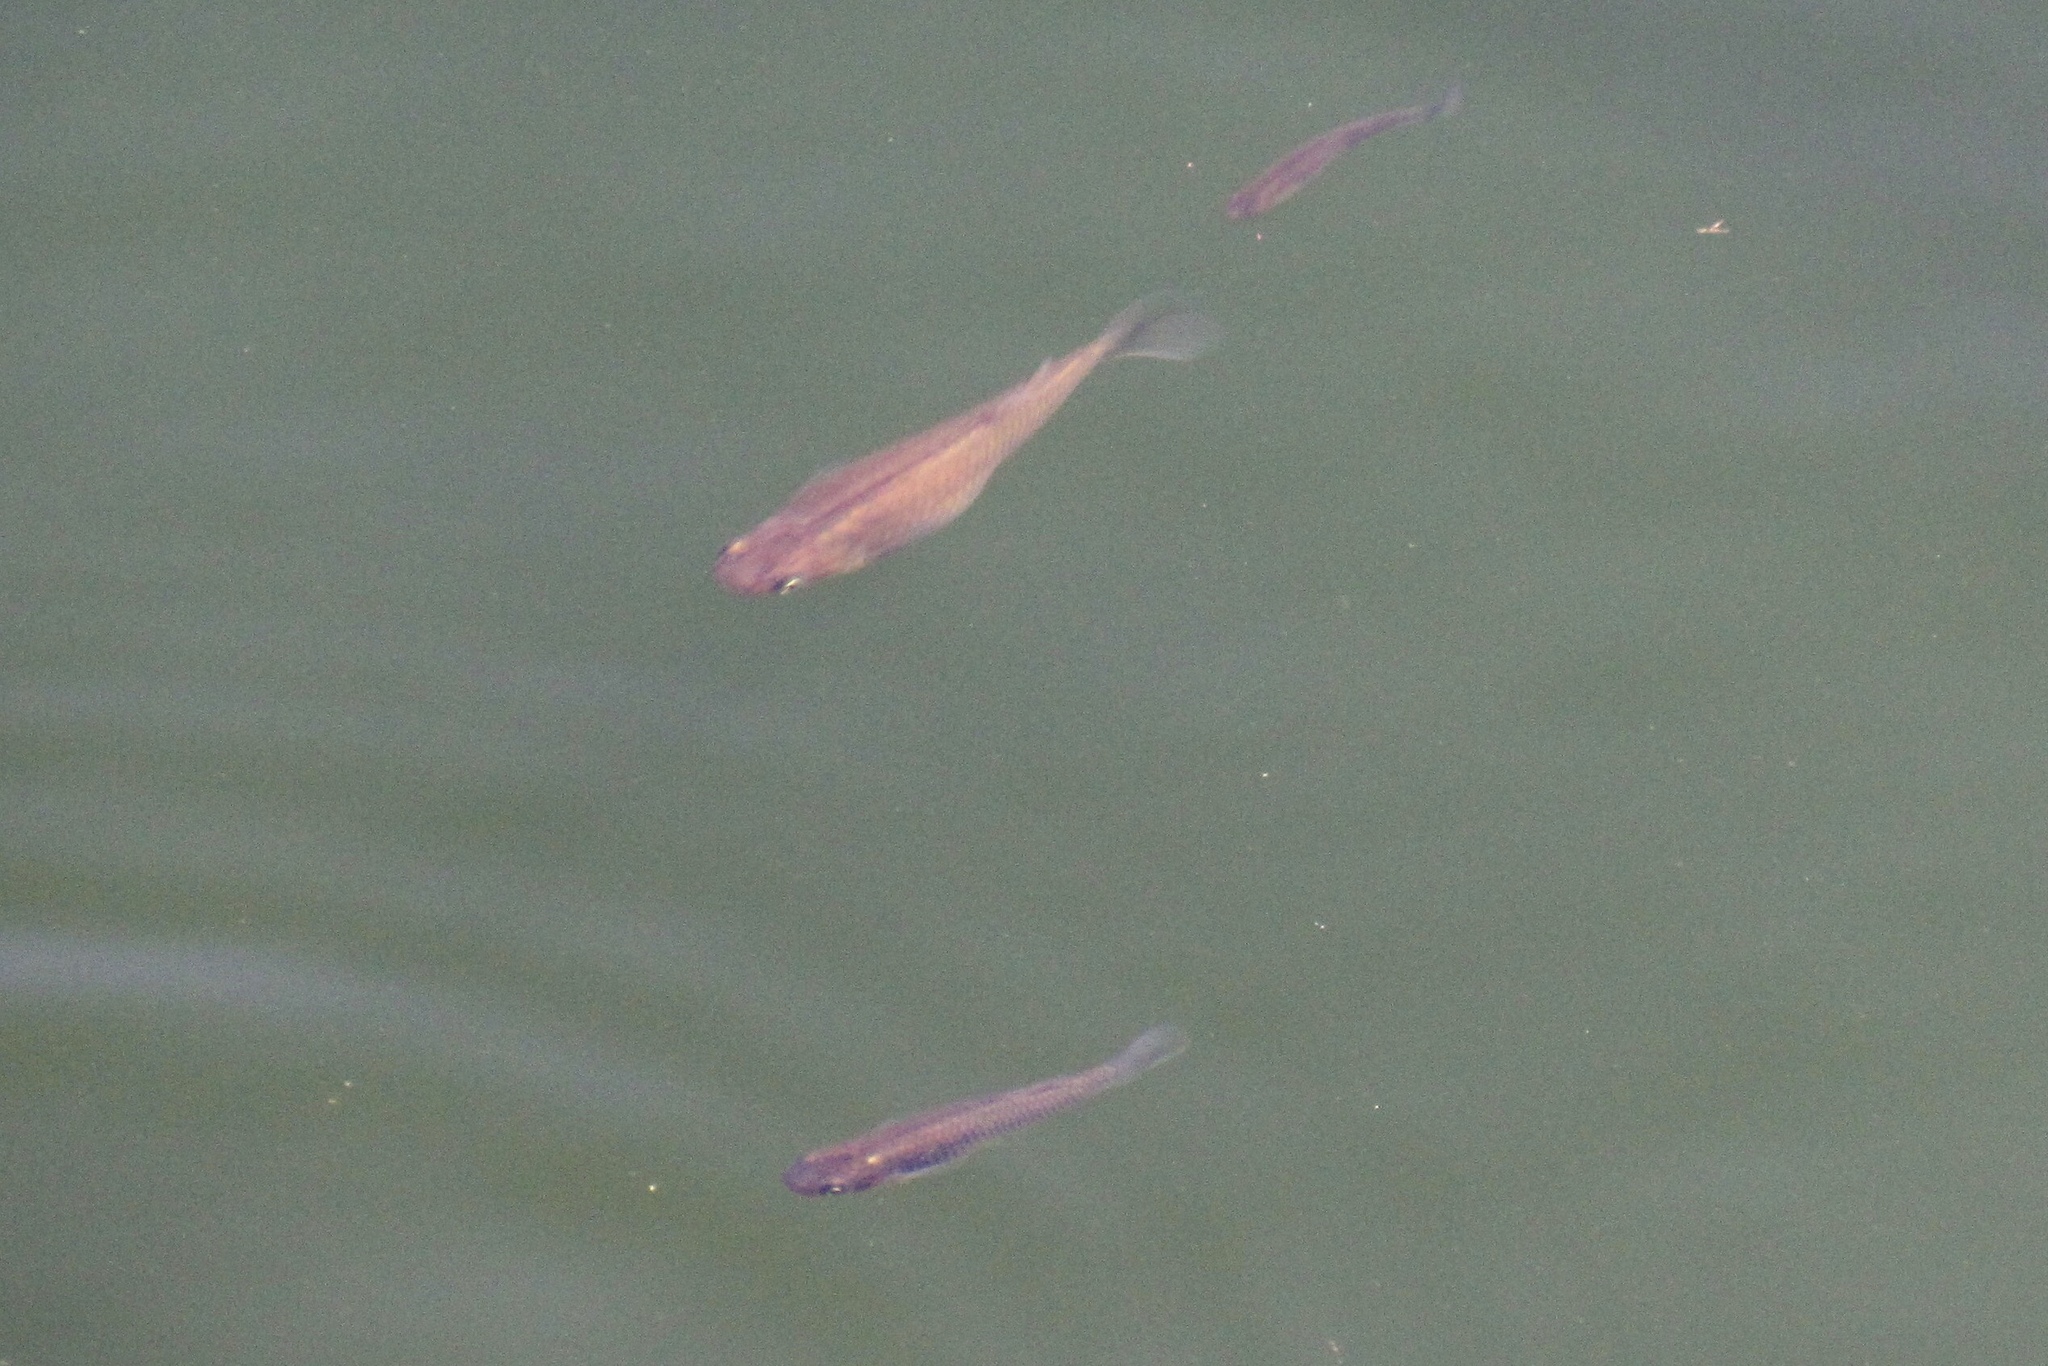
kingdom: Animalia
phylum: Chordata
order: Cyprinodontiformes
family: Poeciliidae
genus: Gambusia
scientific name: Gambusia affinis
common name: Mosquitofish
